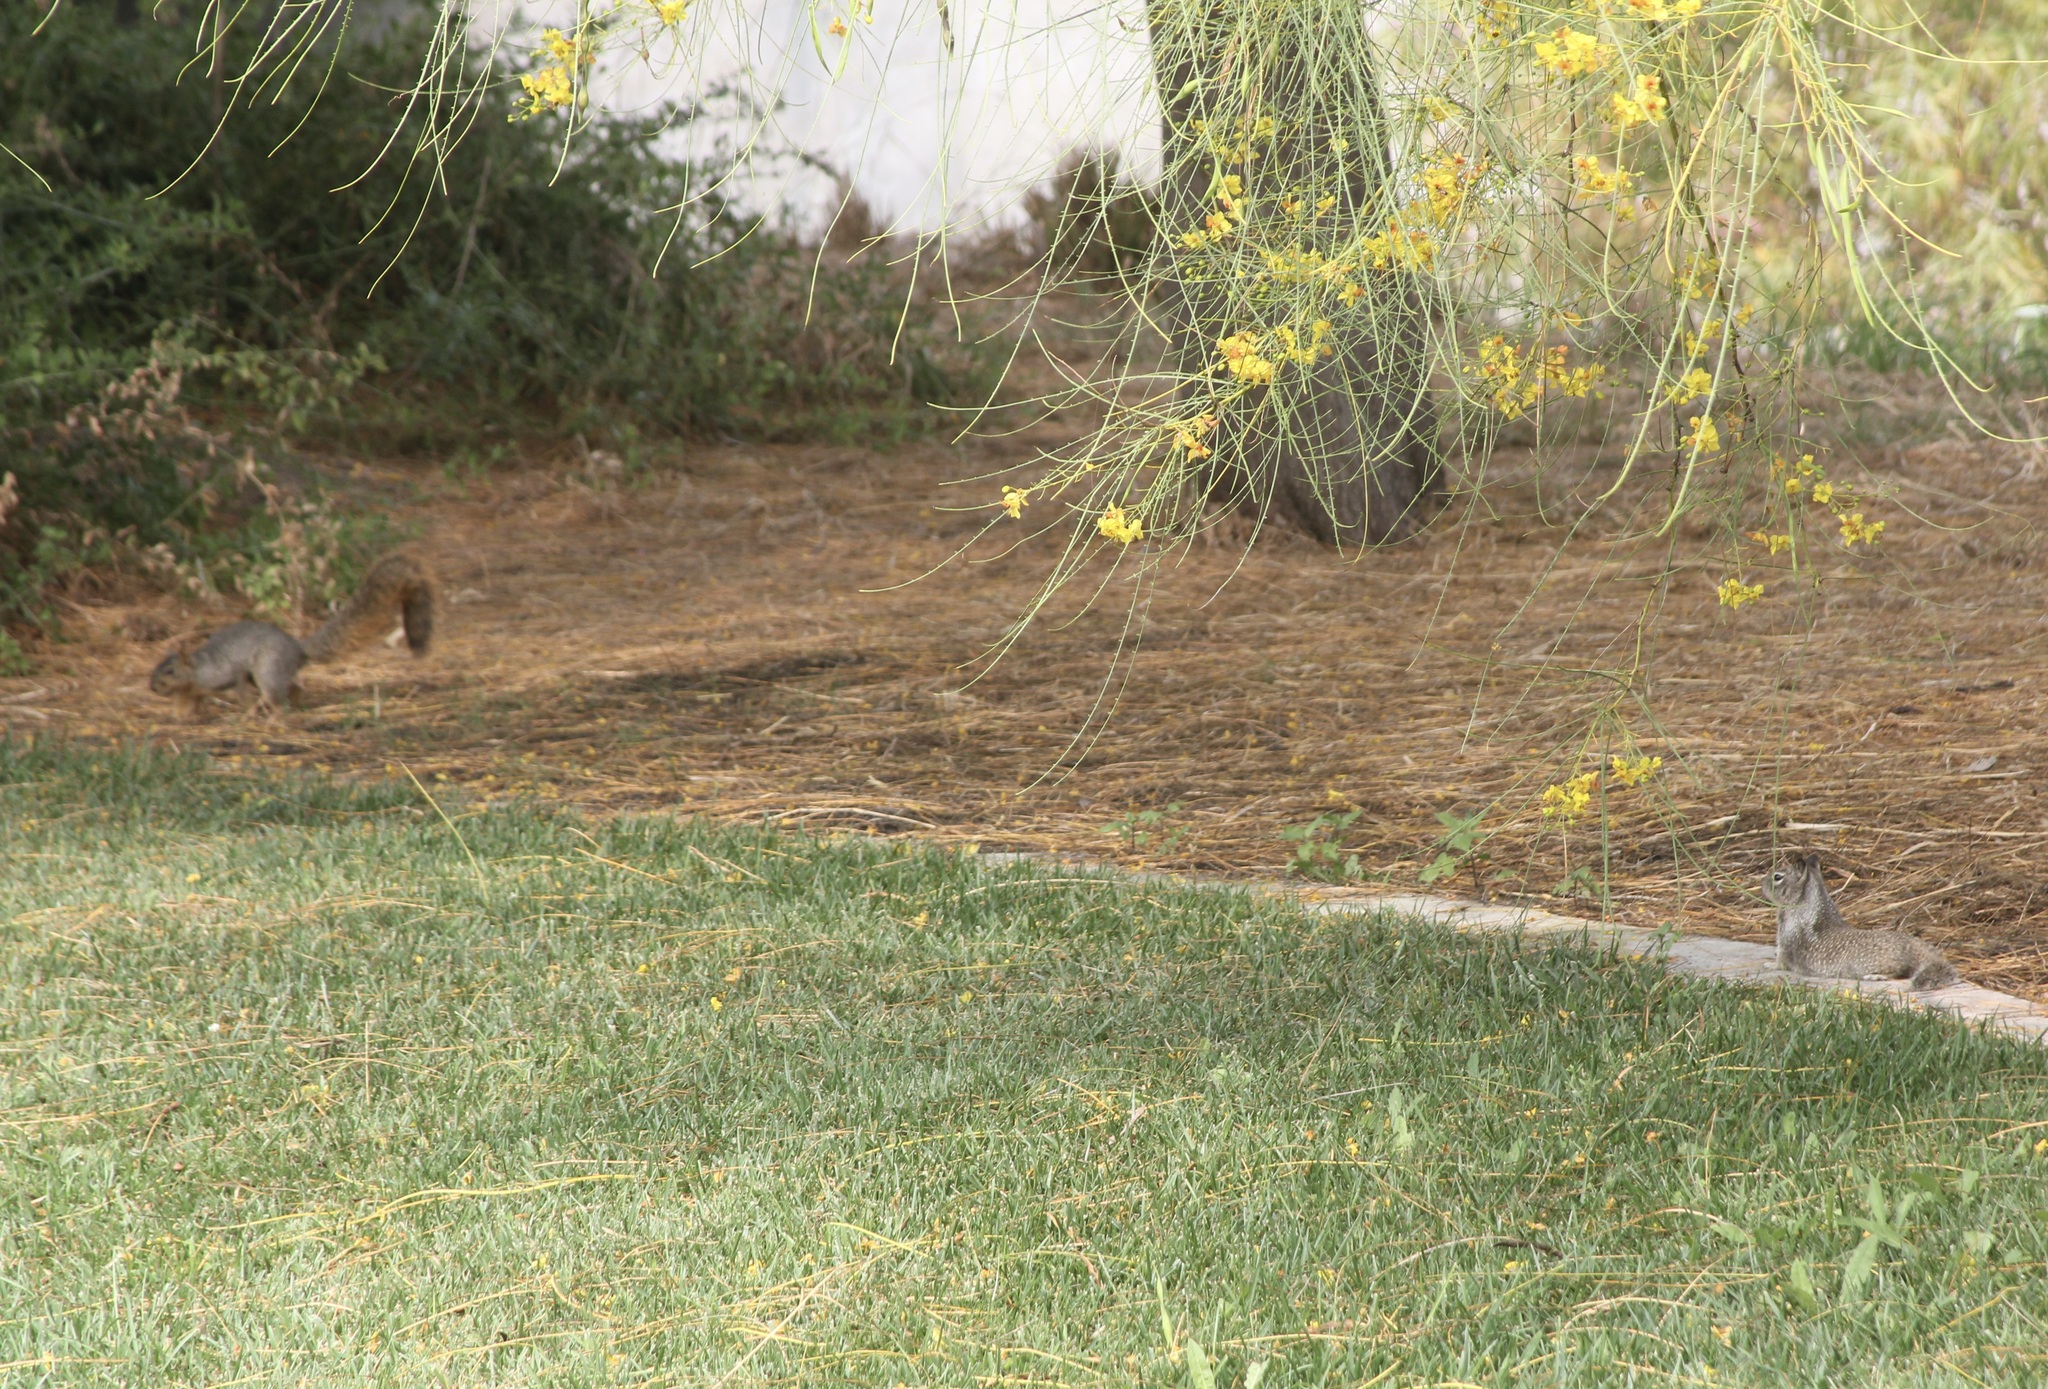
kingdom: Animalia
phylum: Chordata
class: Mammalia
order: Rodentia
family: Sciuridae
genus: Sciurus
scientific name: Sciurus niger
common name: Fox squirrel
